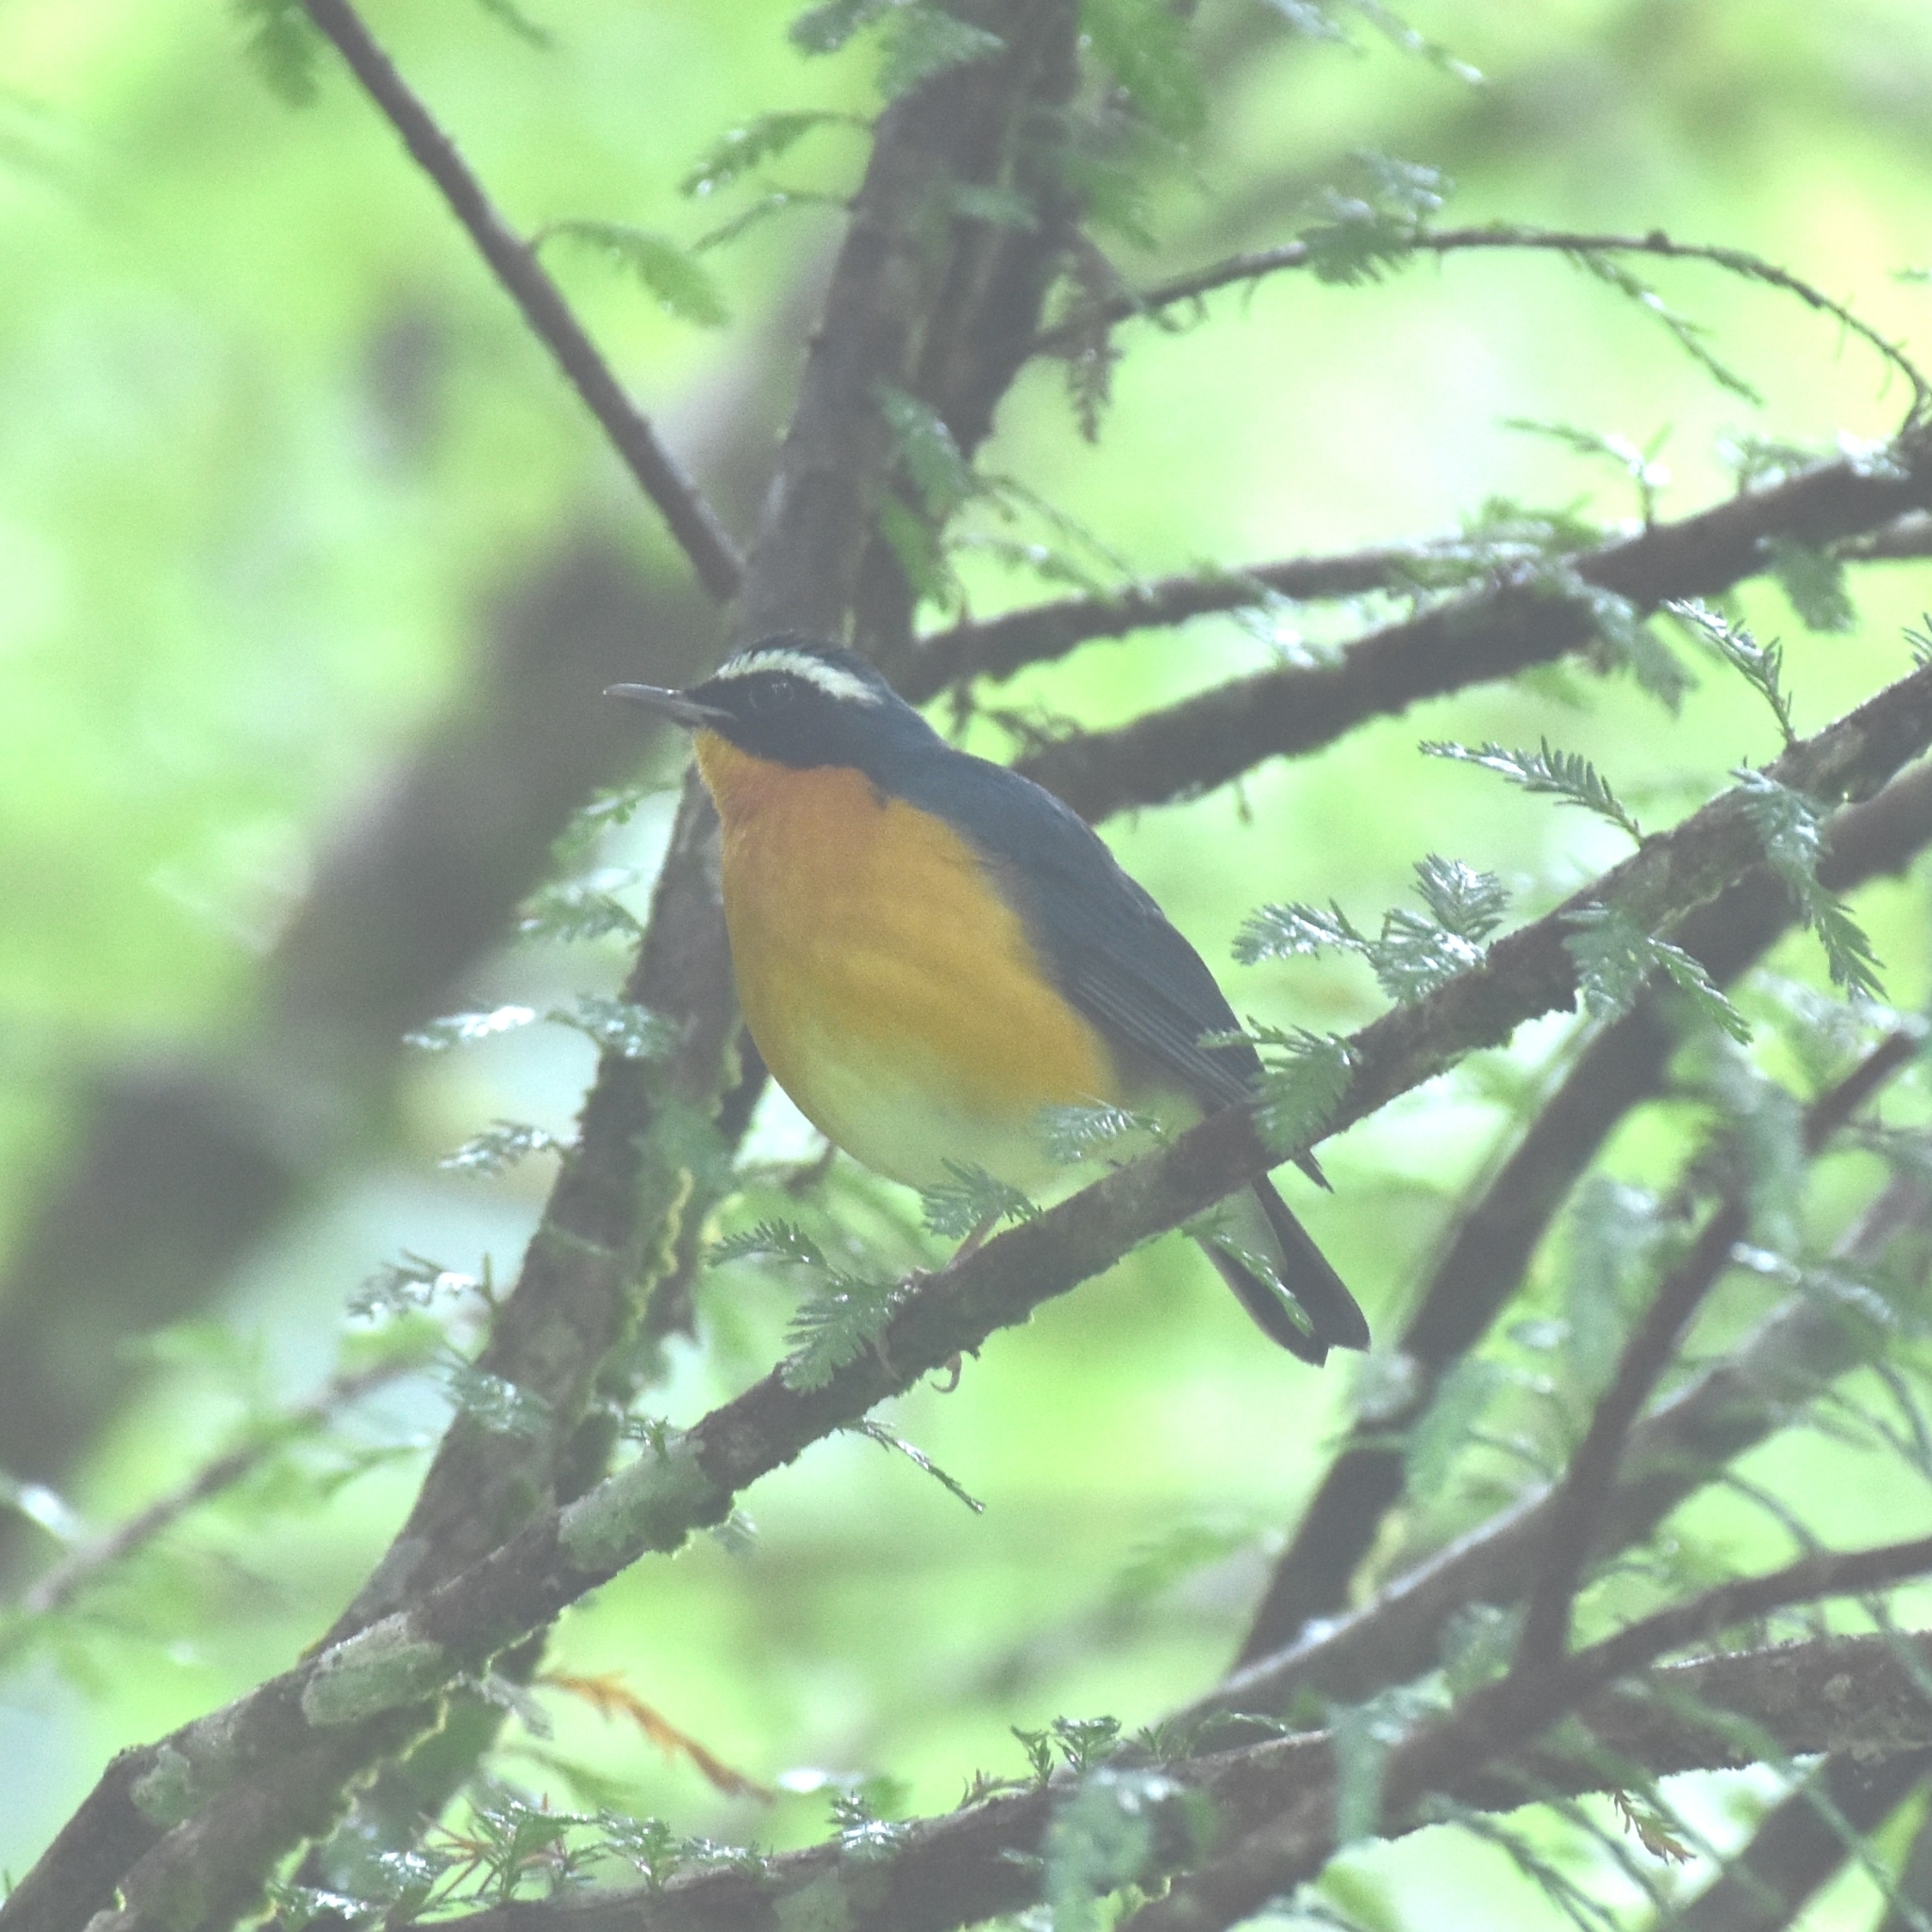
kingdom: Animalia
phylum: Chordata
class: Aves
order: Passeriformes
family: Muscicapidae
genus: Luscinia
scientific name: Luscinia brunnea
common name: Indian blue robin
